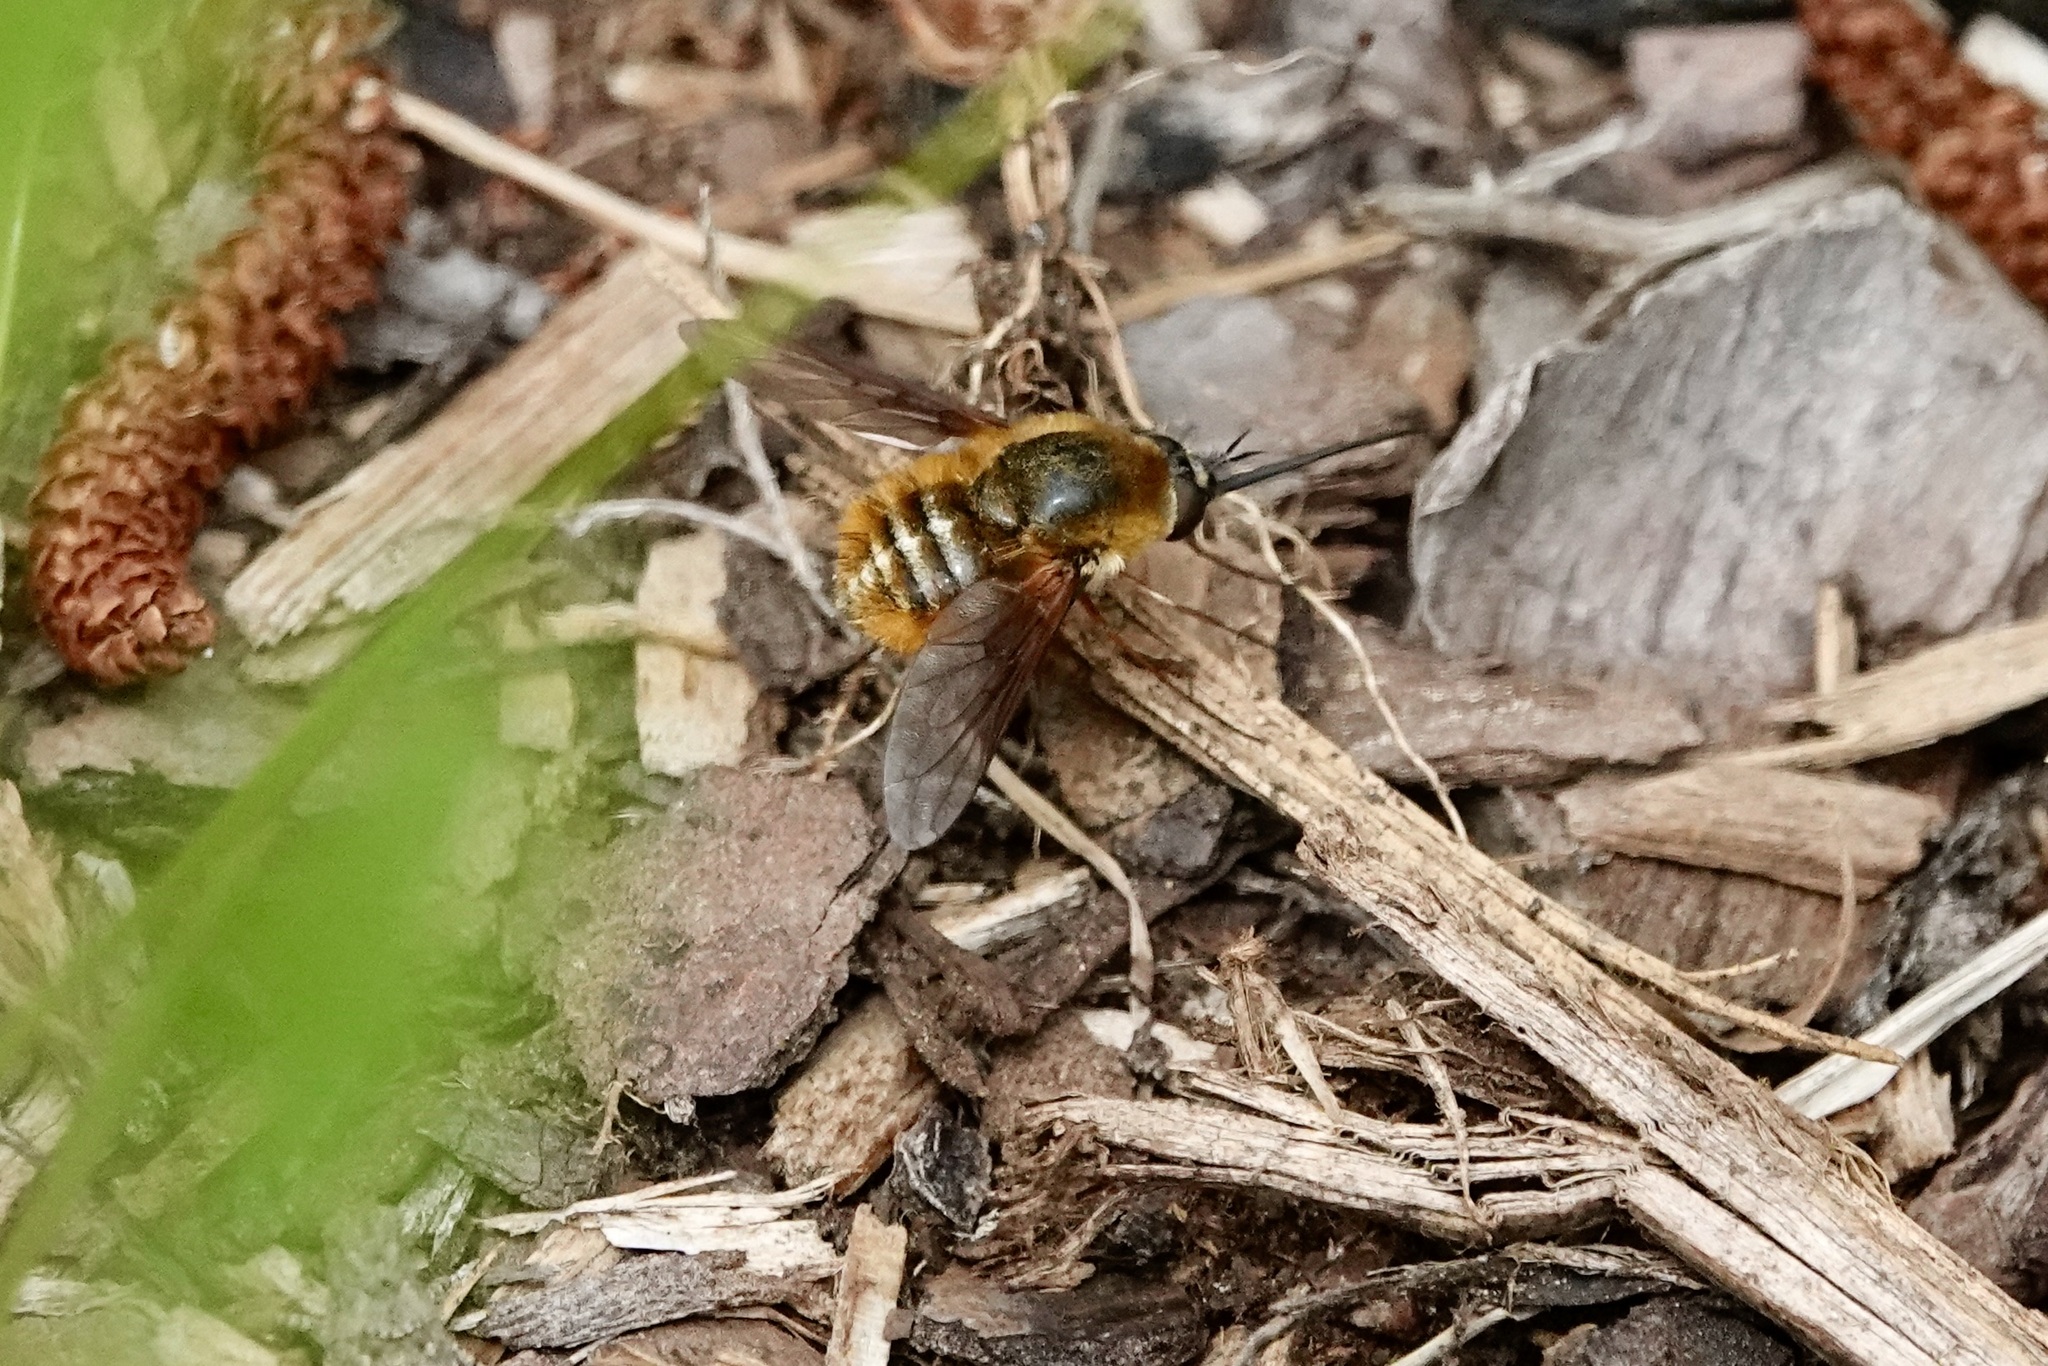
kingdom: Animalia
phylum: Arthropoda
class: Insecta
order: Diptera
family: Bombyliidae
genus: Bombylius
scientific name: Bombylius mexicanus
